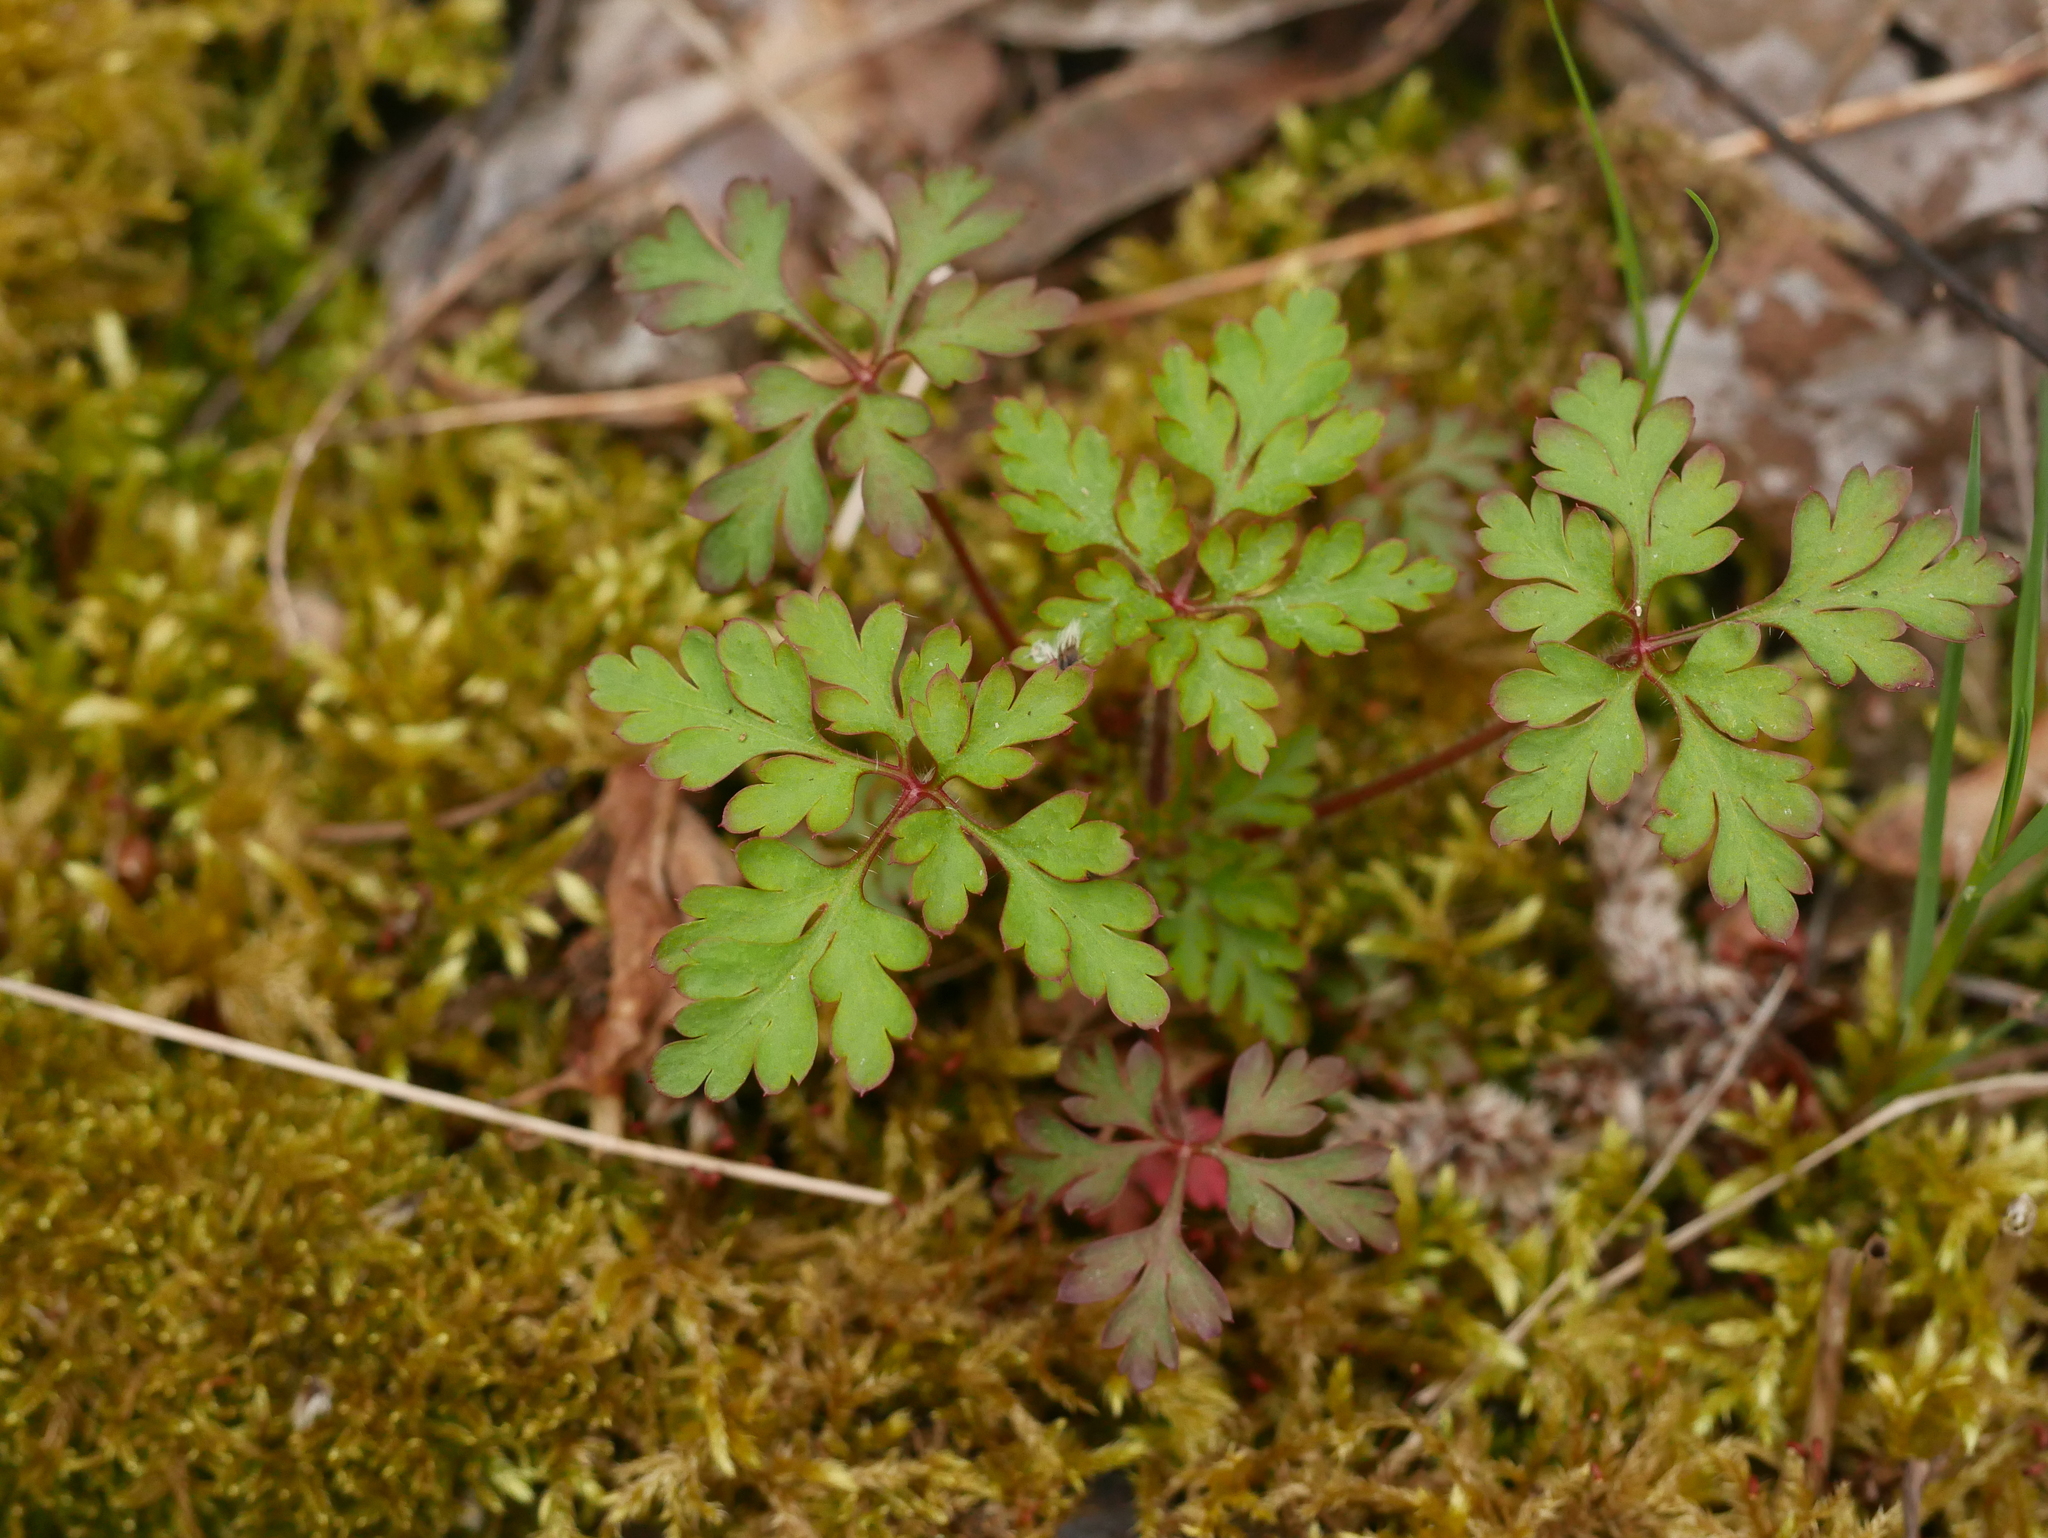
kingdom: Plantae
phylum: Tracheophyta
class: Magnoliopsida
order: Geraniales
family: Geraniaceae
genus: Geranium
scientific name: Geranium robertianum
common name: Herb-robert
